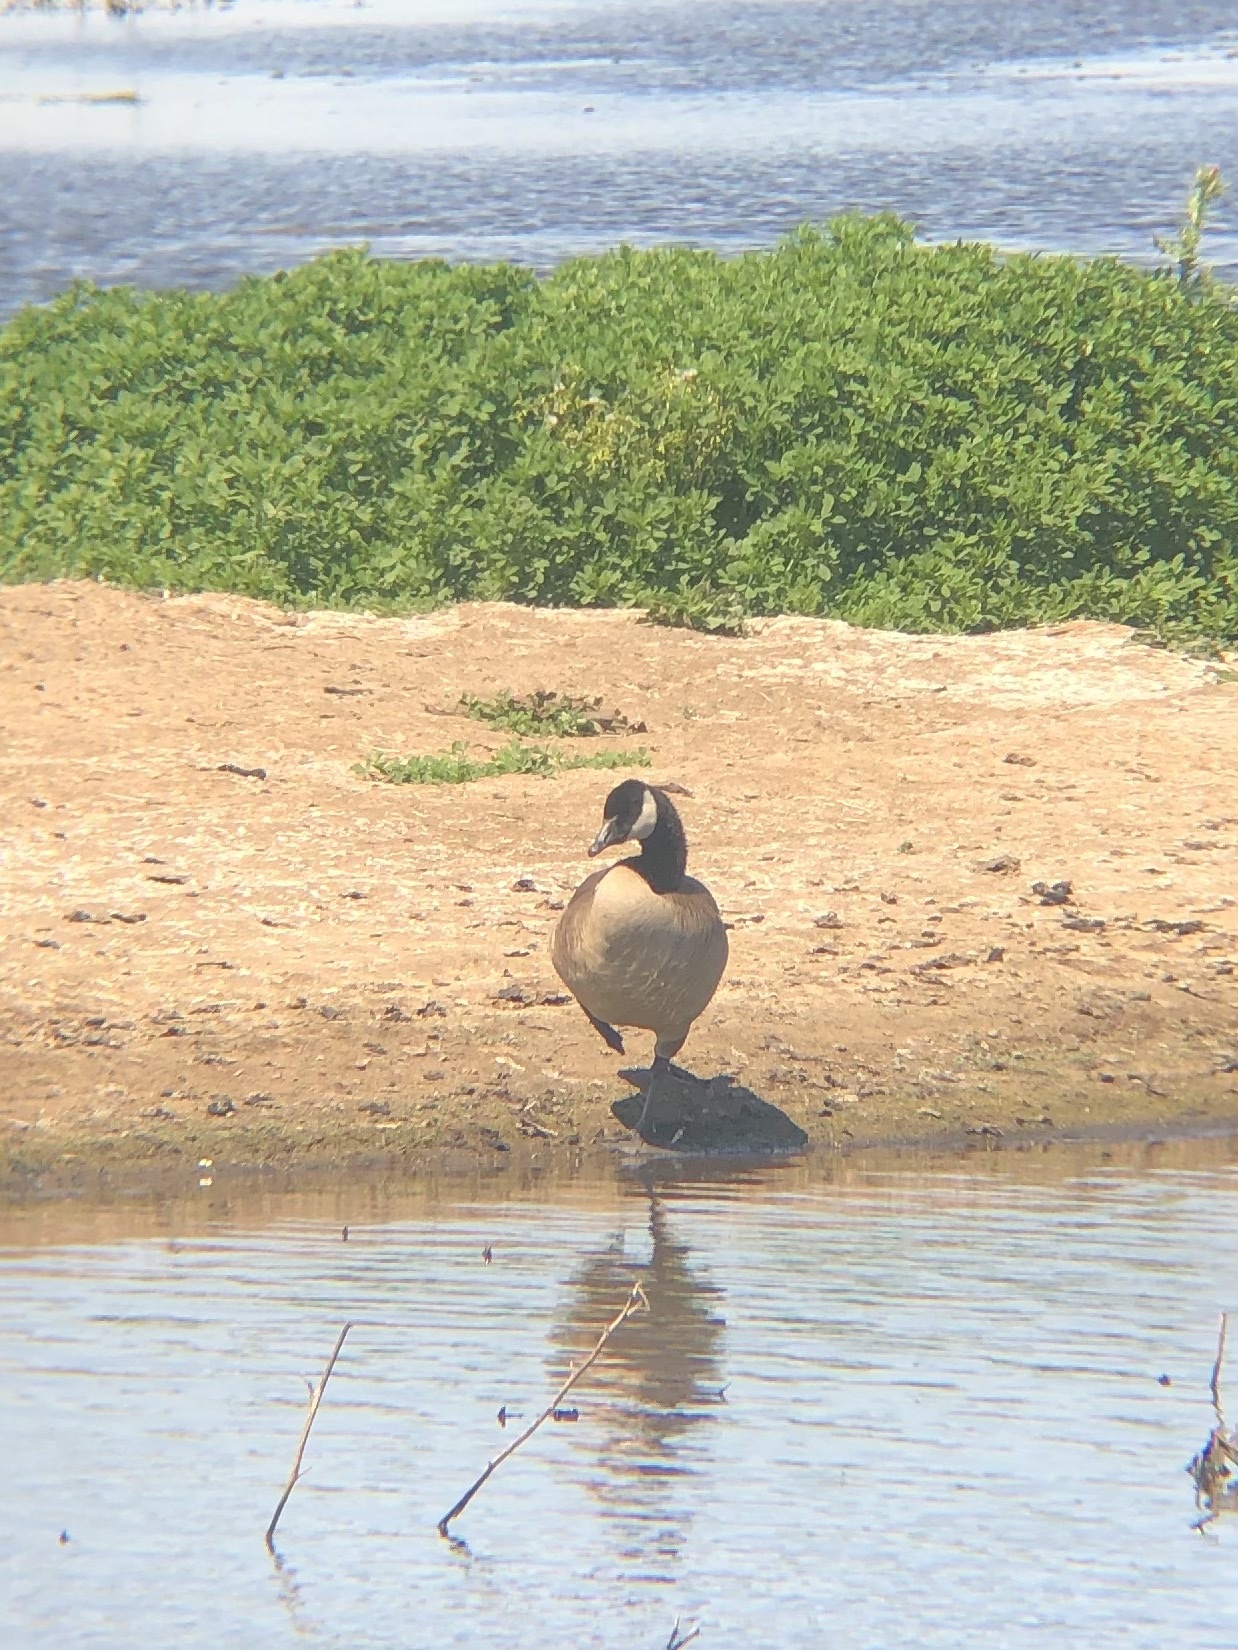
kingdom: Animalia
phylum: Chordata
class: Aves
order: Anseriformes
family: Anatidae
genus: Branta
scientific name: Branta canadensis
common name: Canada goose
